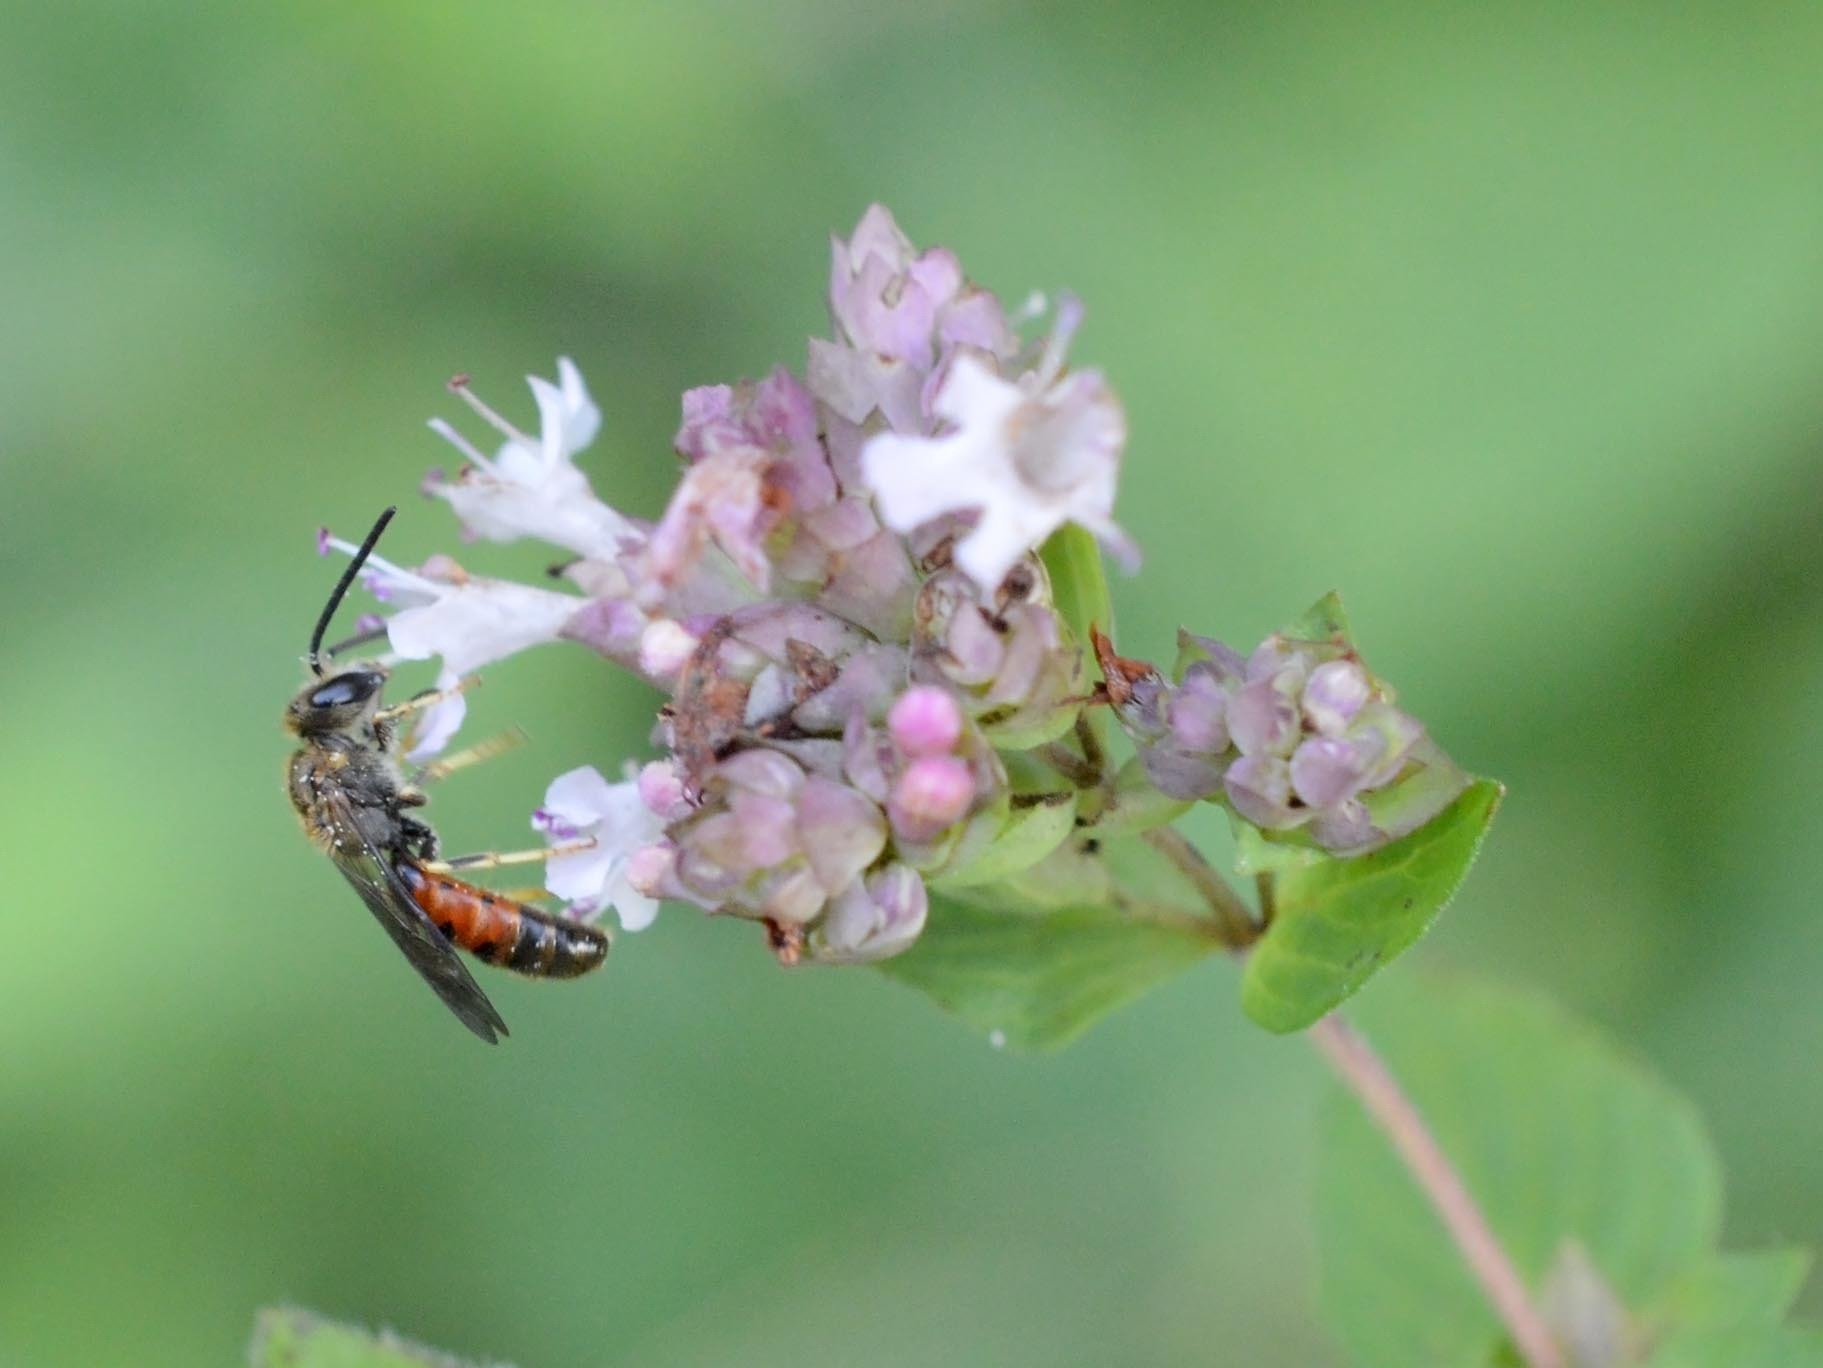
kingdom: Animalia
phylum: Arthropoda
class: Insecta
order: Hymenoptera
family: Halictidae
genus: Lasioglossum
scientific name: Lasioglossum albipes
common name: Bloomed furrow bee
